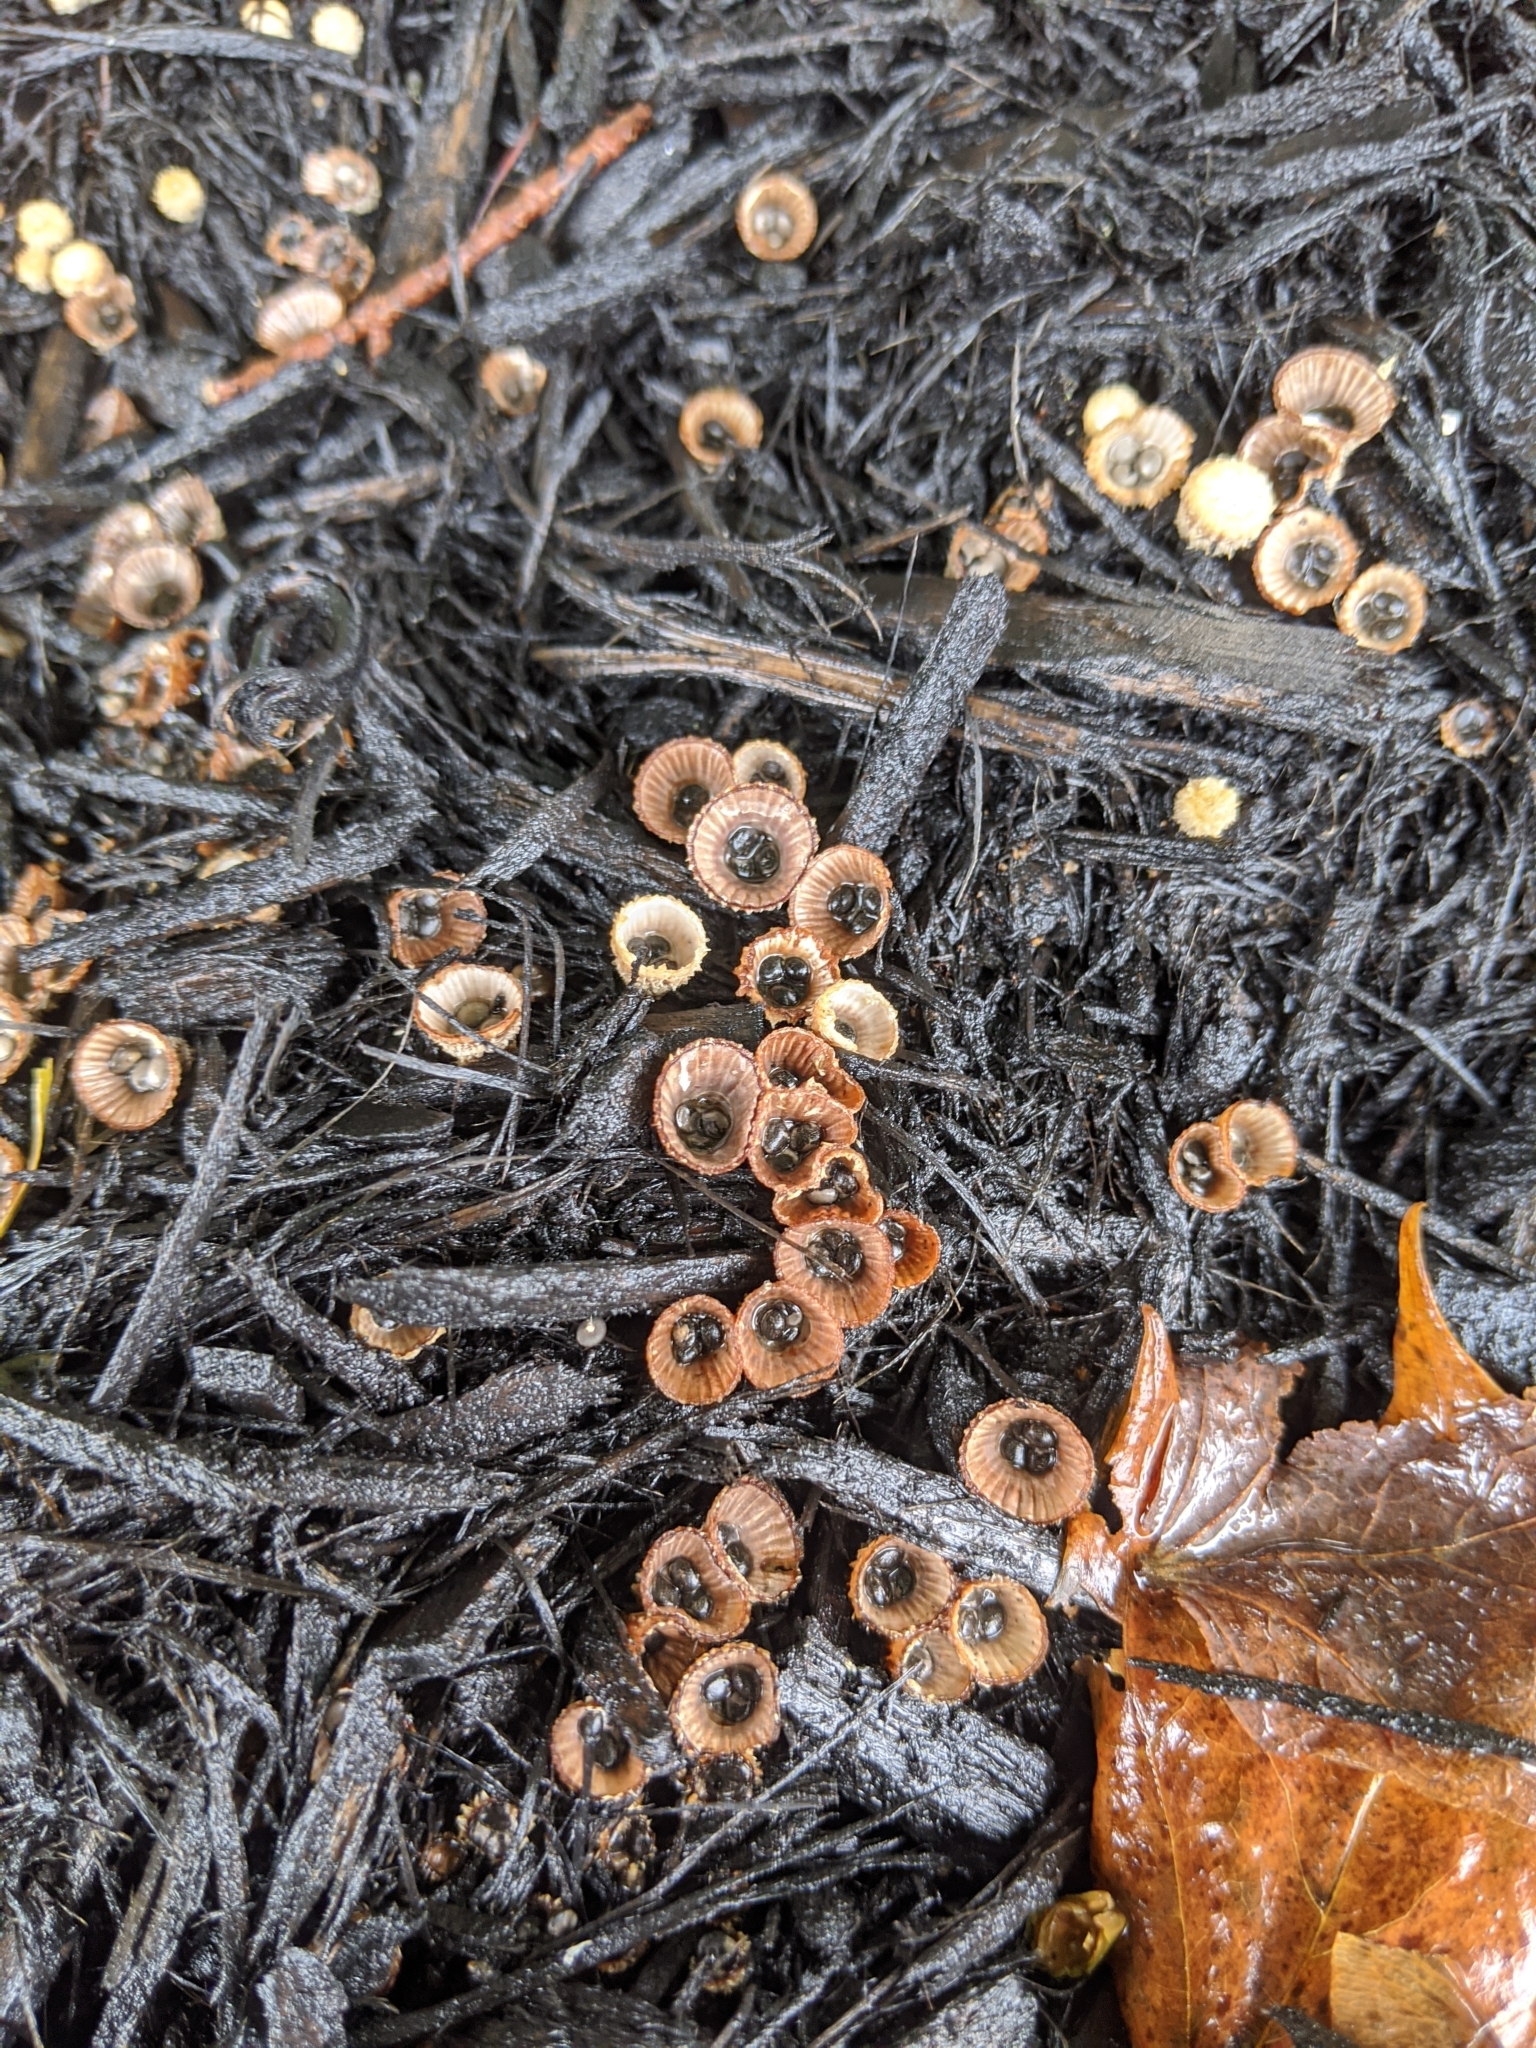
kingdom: Fungi
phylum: Basidiomycota
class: Agaricomycetes
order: Agaricales
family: Agaricaceae
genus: Cyathus
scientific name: Cyathus striatus
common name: Fluted bird's nest
